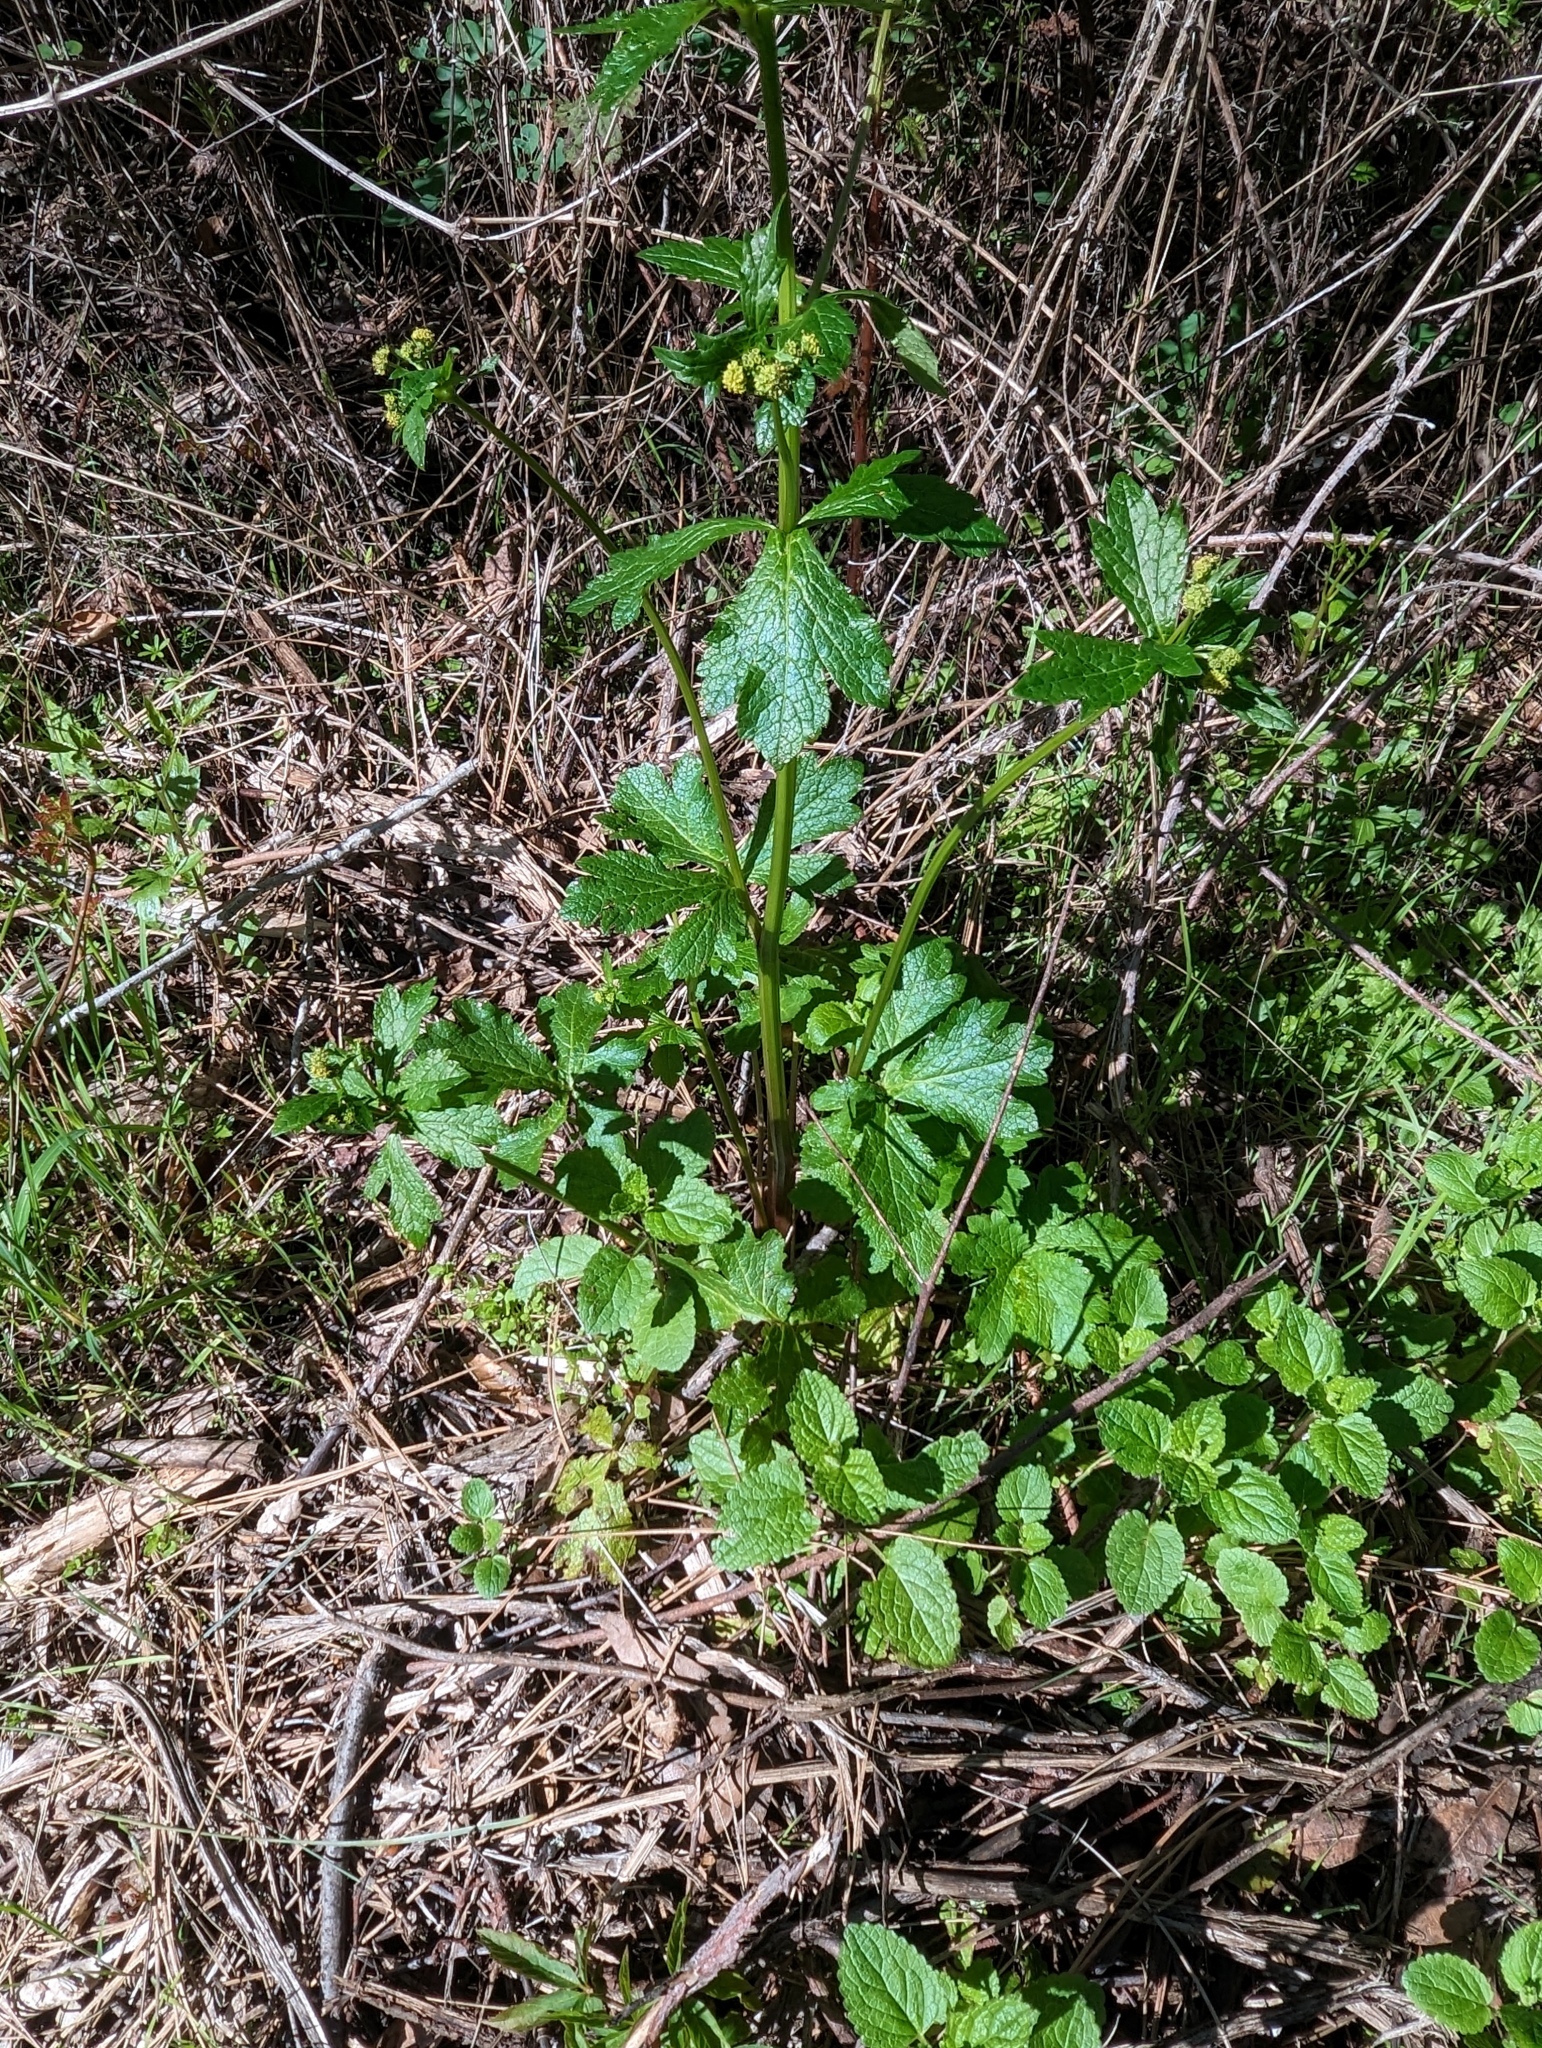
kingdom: Plantae
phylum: Tracheophyta
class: Magnoliopsida
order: Apiales
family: Apiaceae
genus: Sanicula
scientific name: Sanicula crassicaulis
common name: Western snakeroot
